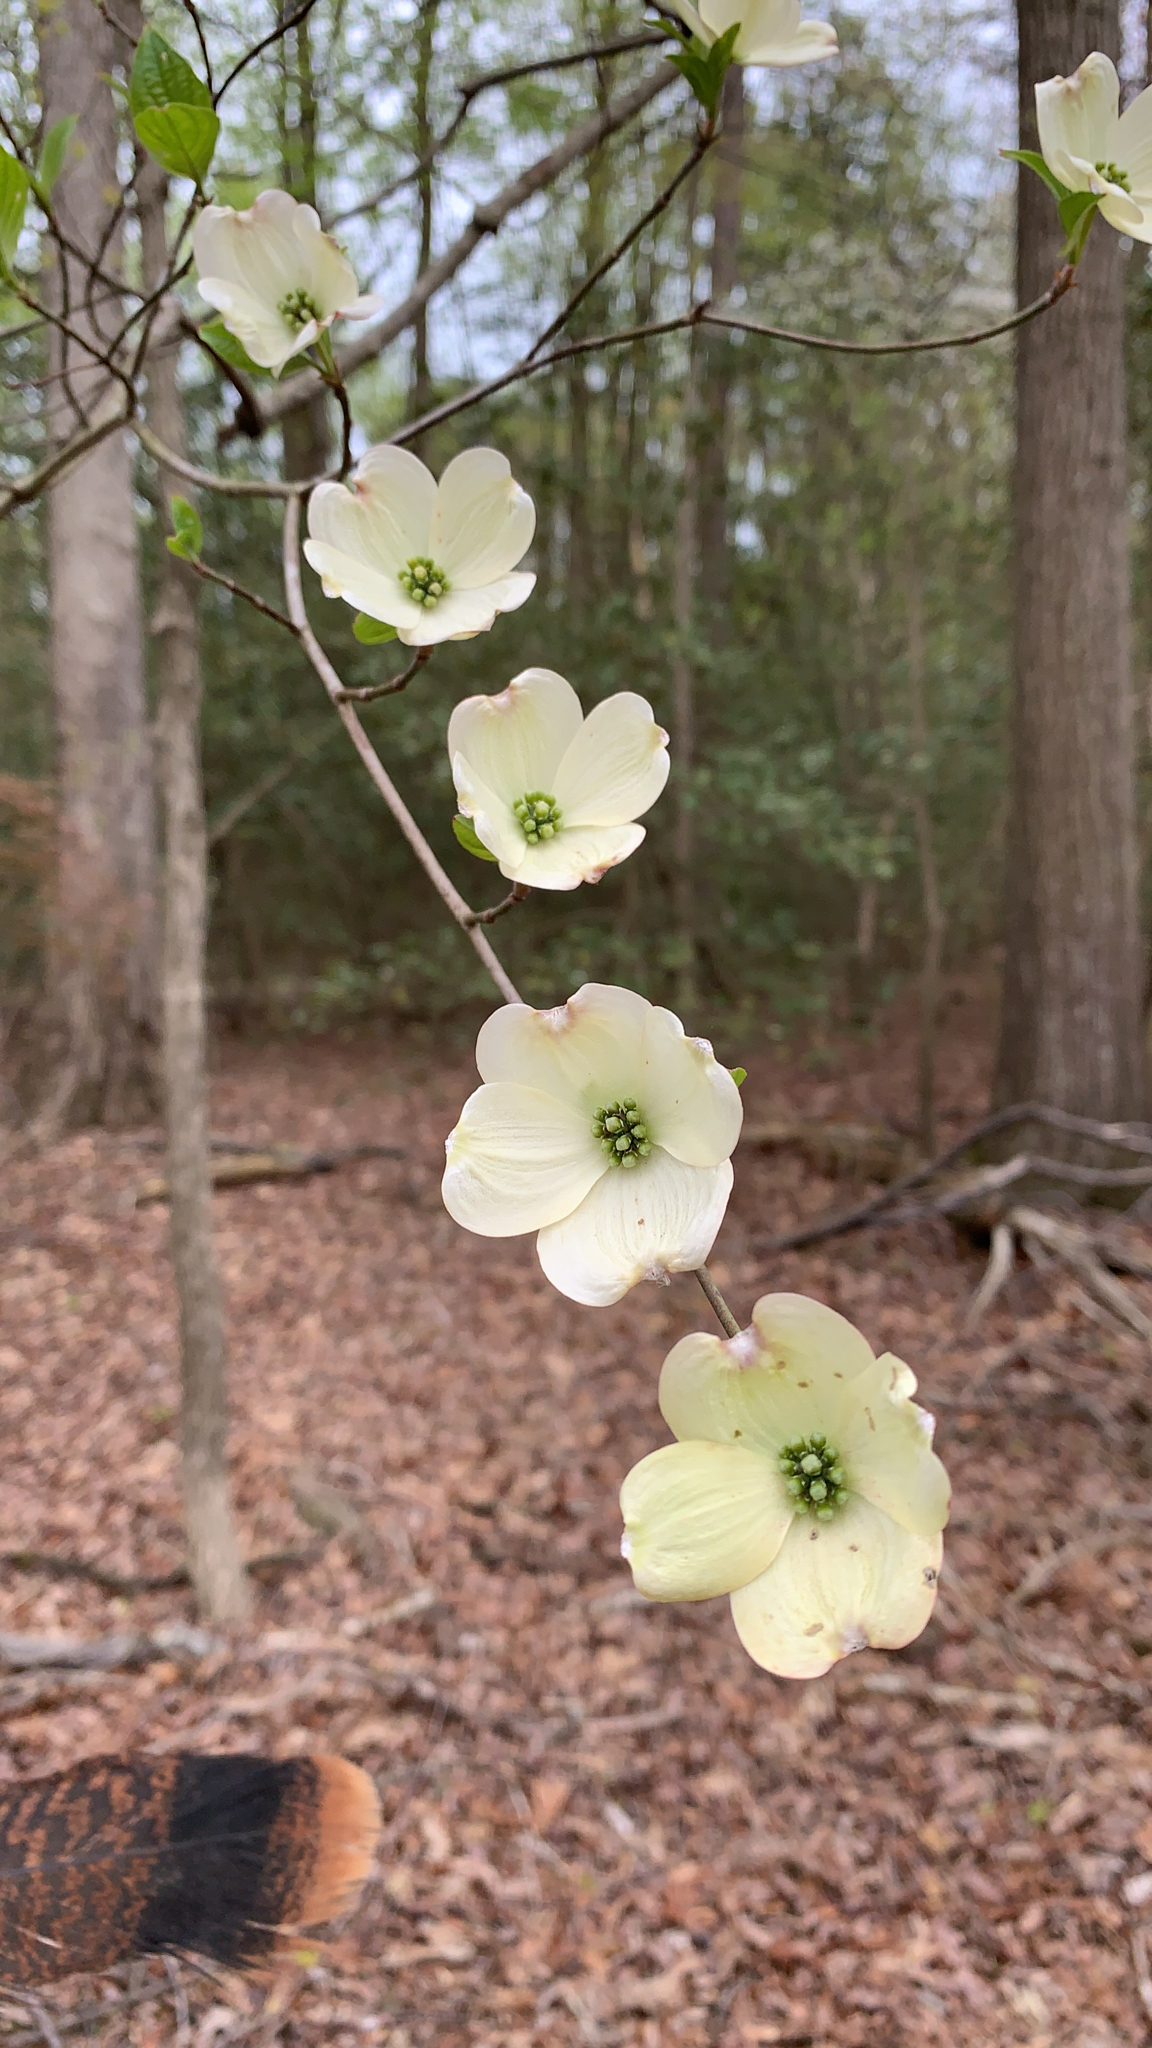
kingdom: Plantae
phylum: Tracheophyta
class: Magnoliopsida
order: Cornales
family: Cornaceae
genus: Cornus
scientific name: Cornus florida
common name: Flowering dogwood
